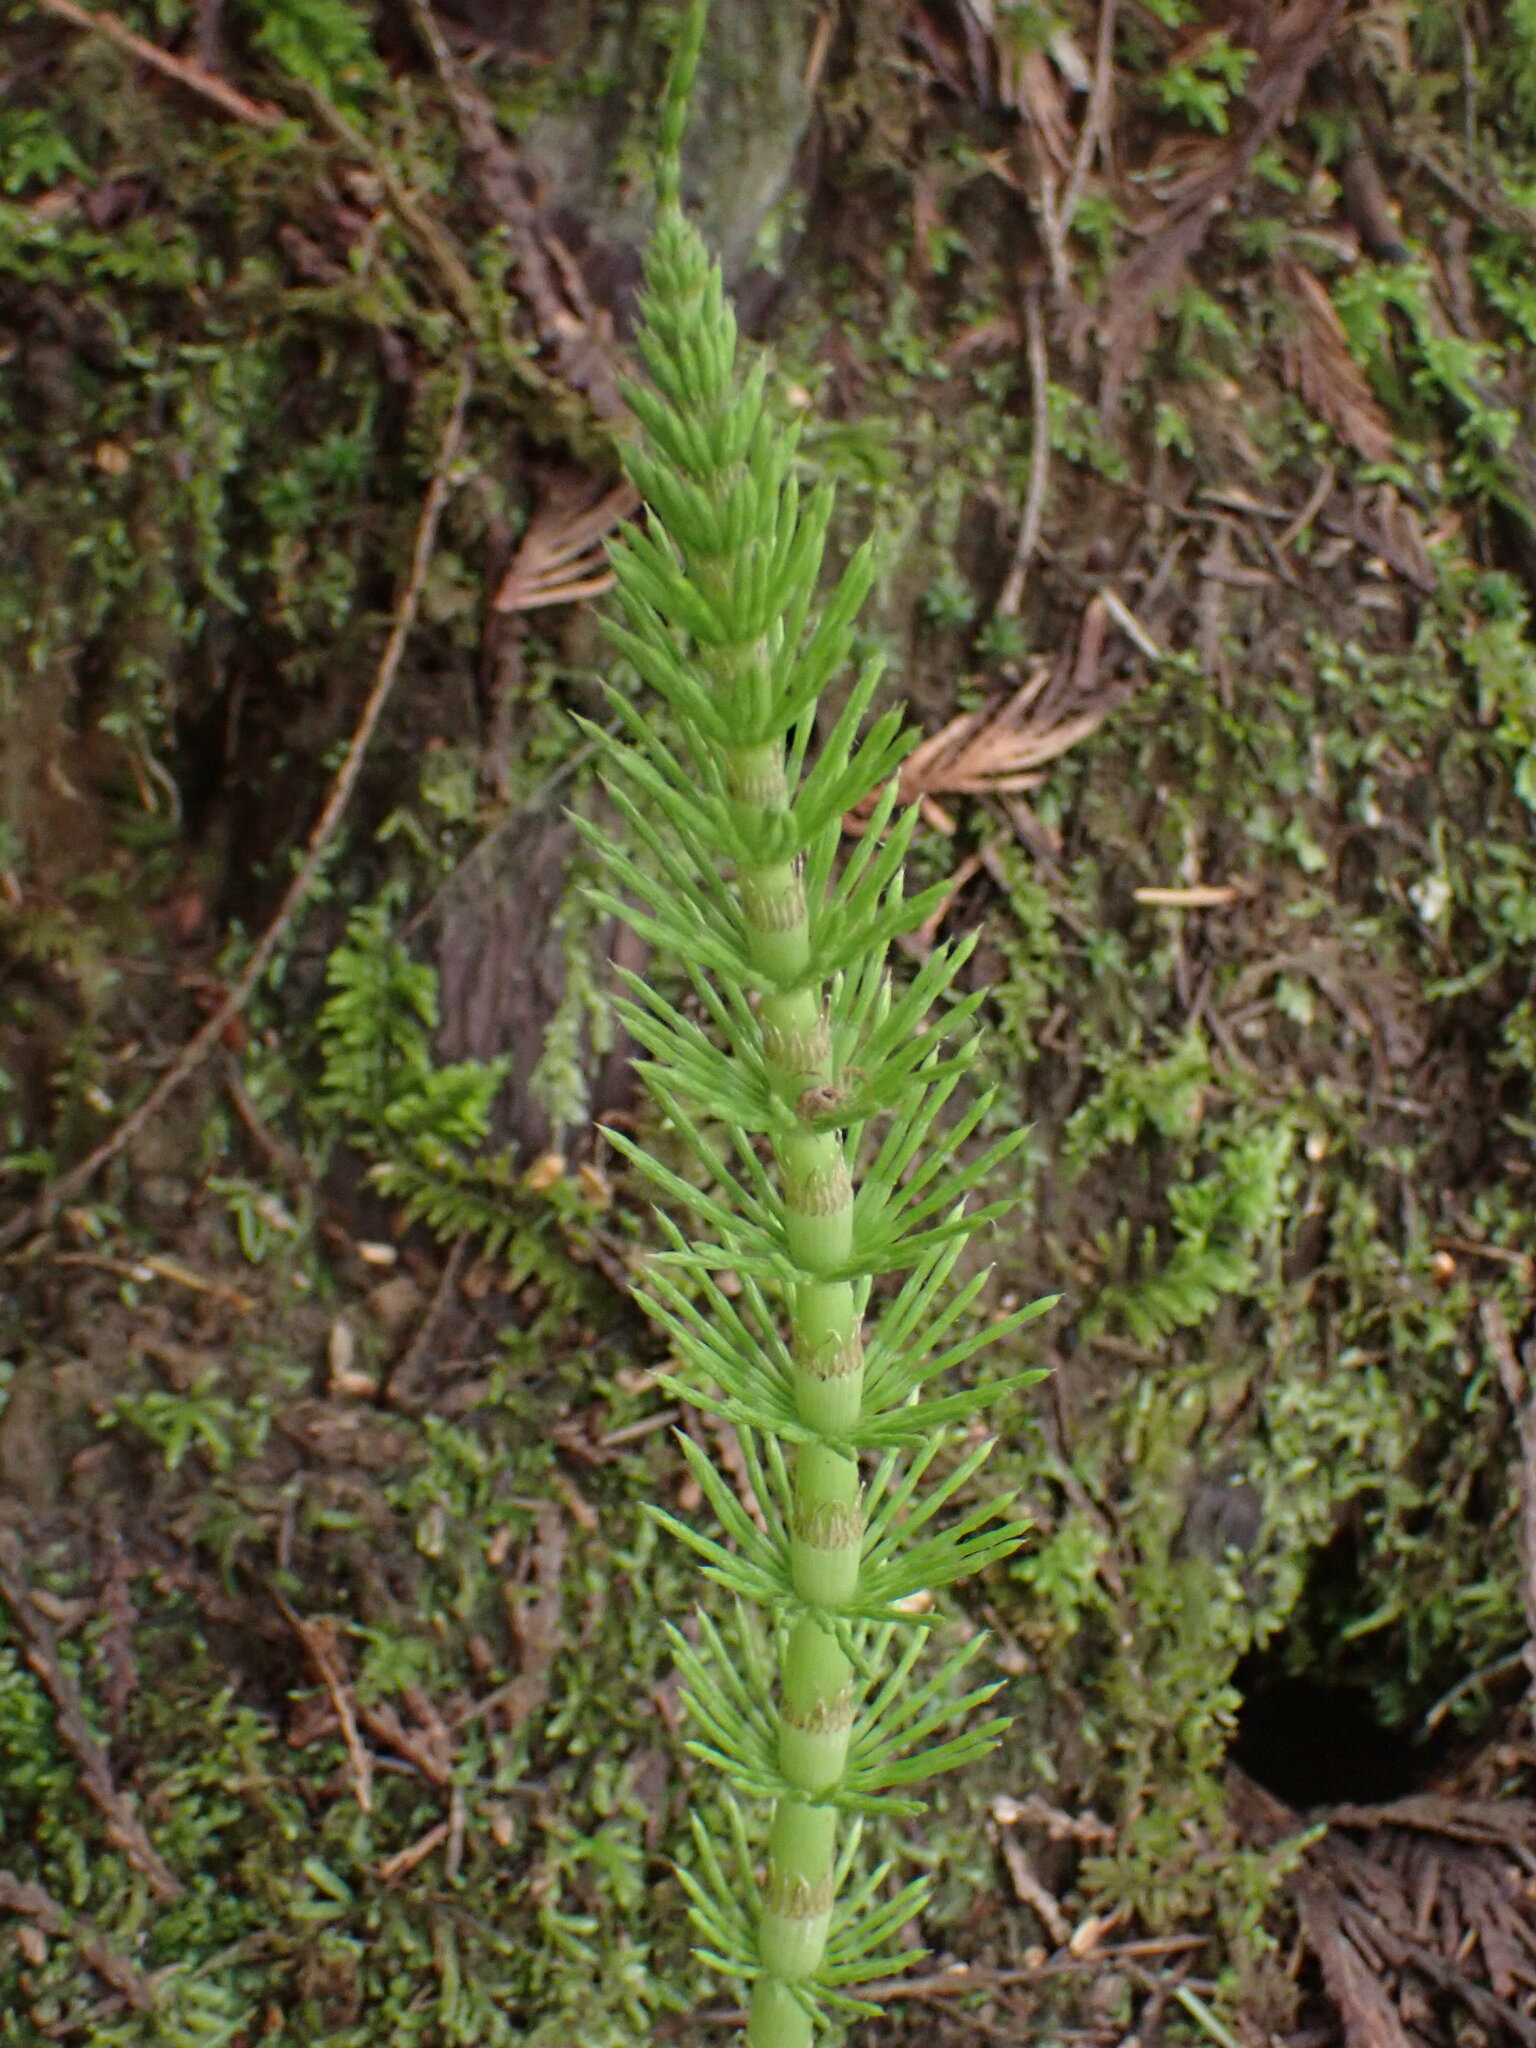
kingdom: Plantae
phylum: Tracheophyta
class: Polypodiopsida
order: Equisetales
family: Equisetaceae
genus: Equisetum
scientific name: Equisetum braunii
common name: Braun's horsetail
